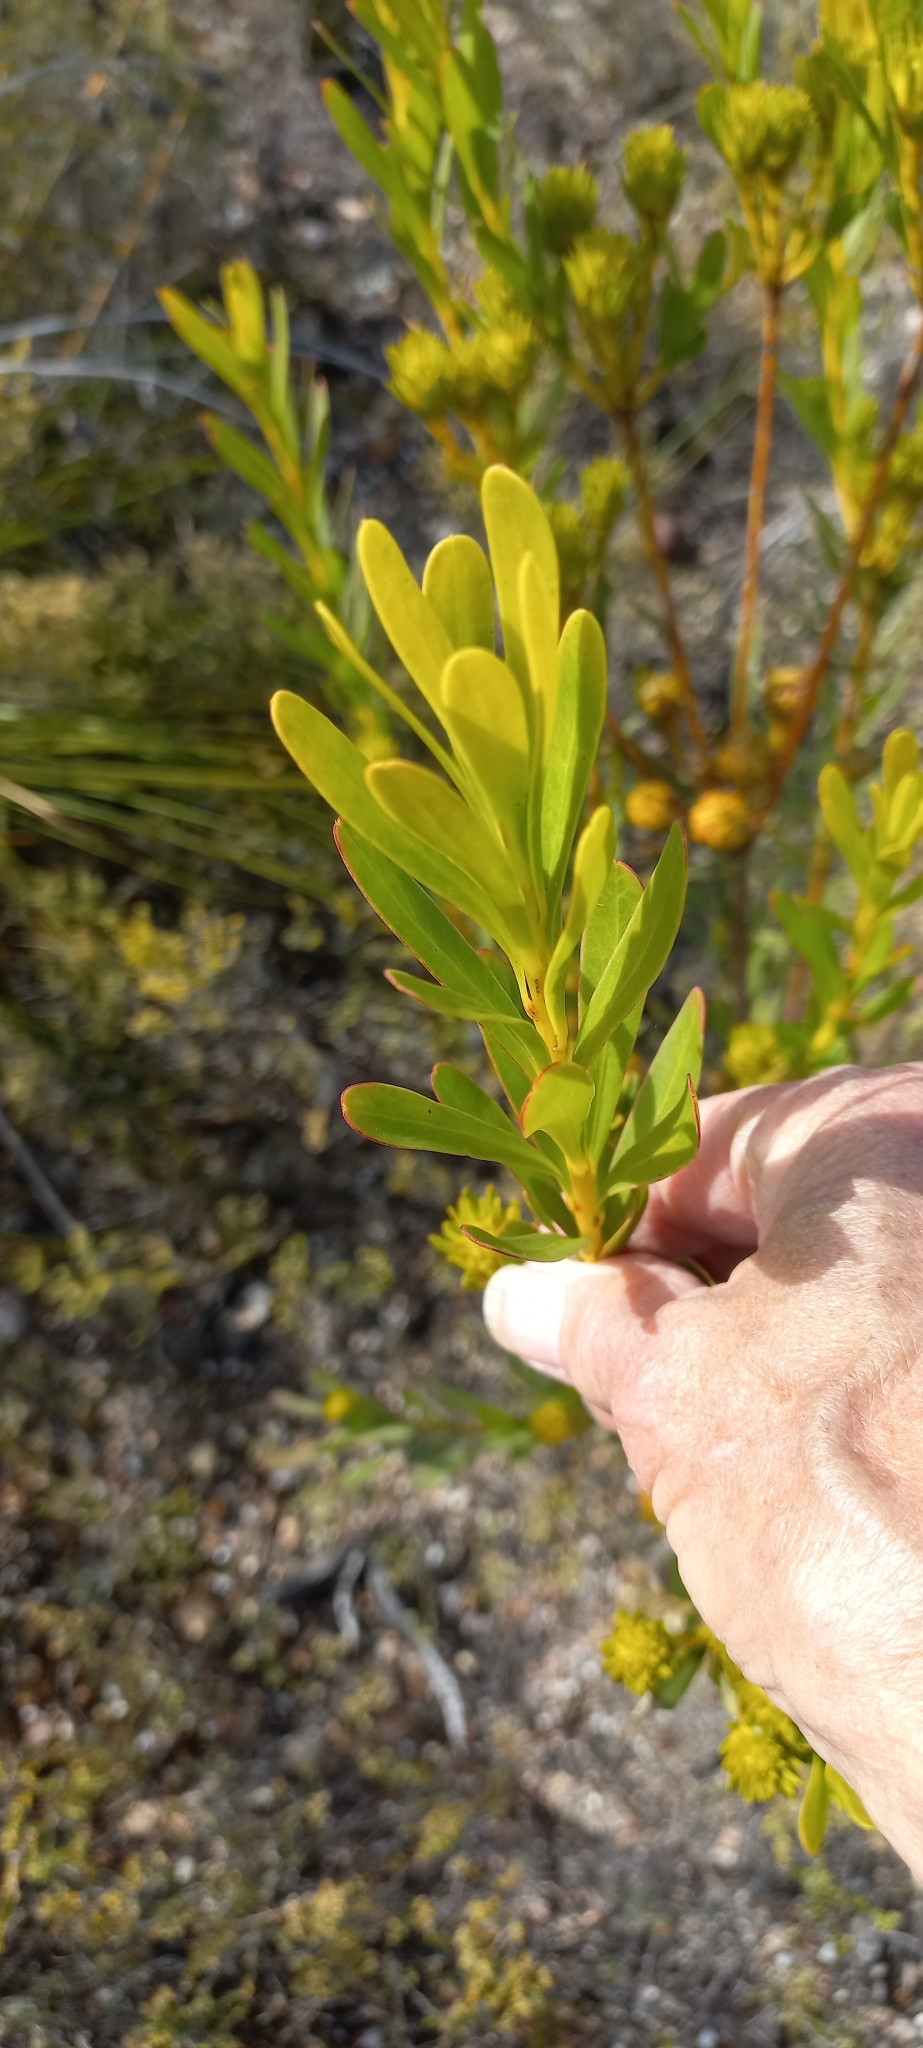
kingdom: Plantae
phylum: Tracheophyta
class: Magnoliopsida
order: Proteales
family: Proteaceae
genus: Aulax
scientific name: Aulax umbellata
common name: Broad-leaf featherbush
